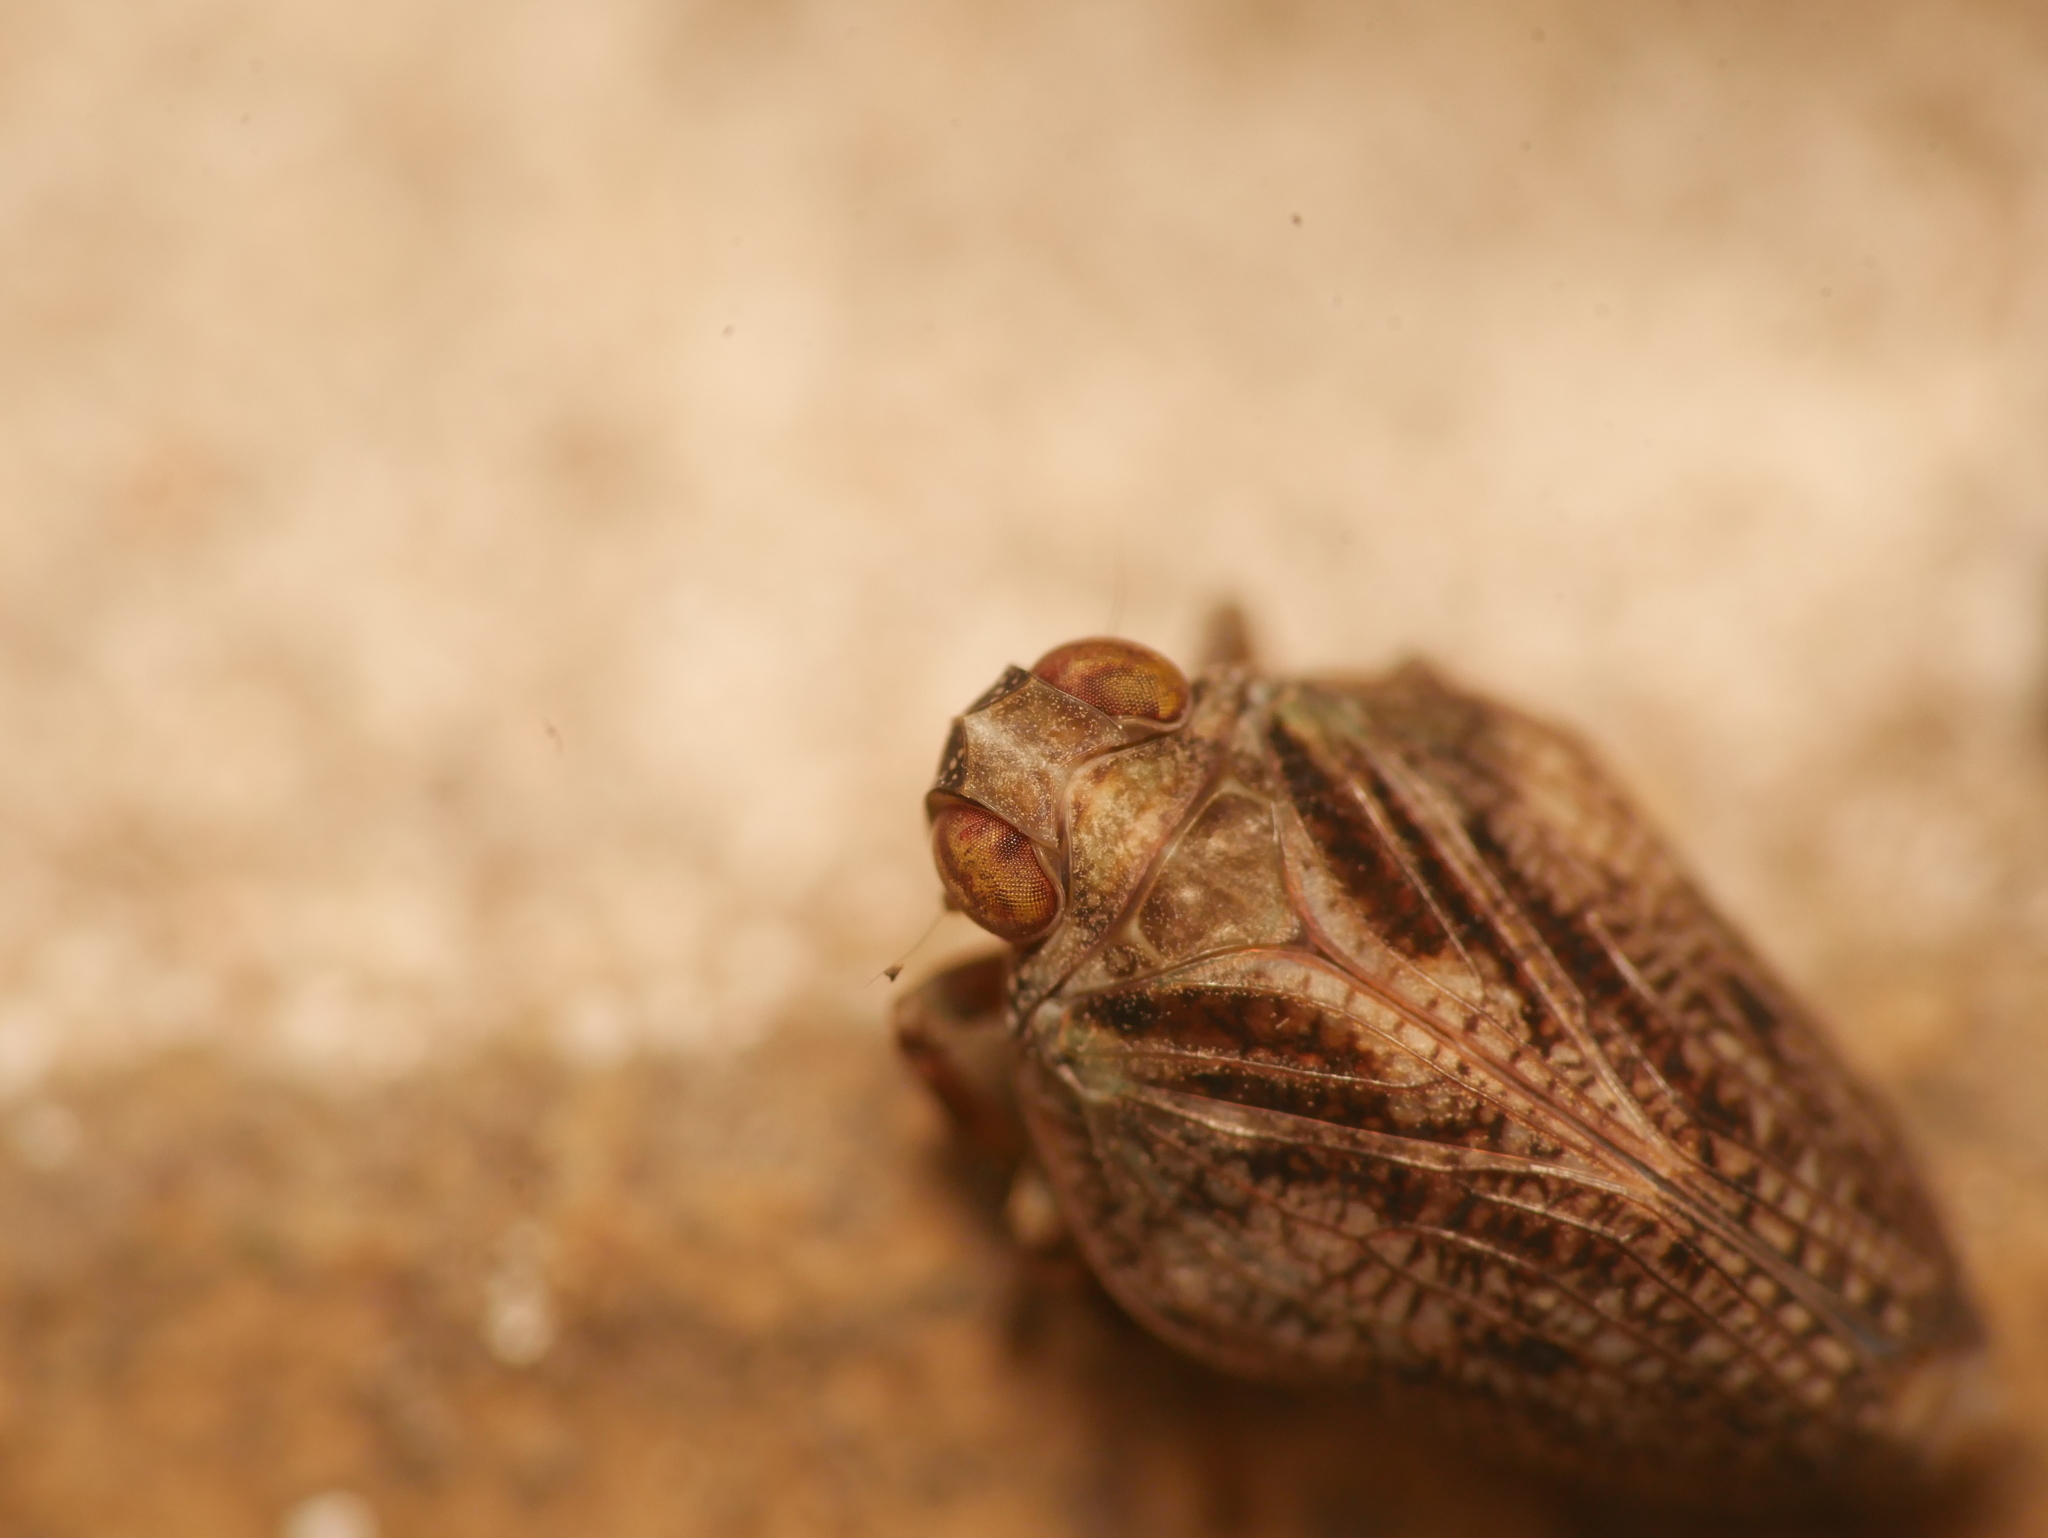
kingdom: Animalia
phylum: Arthropoda
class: Insecta
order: Hemiptera
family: Issidae
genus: Issus
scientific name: Issus coleoptratus
